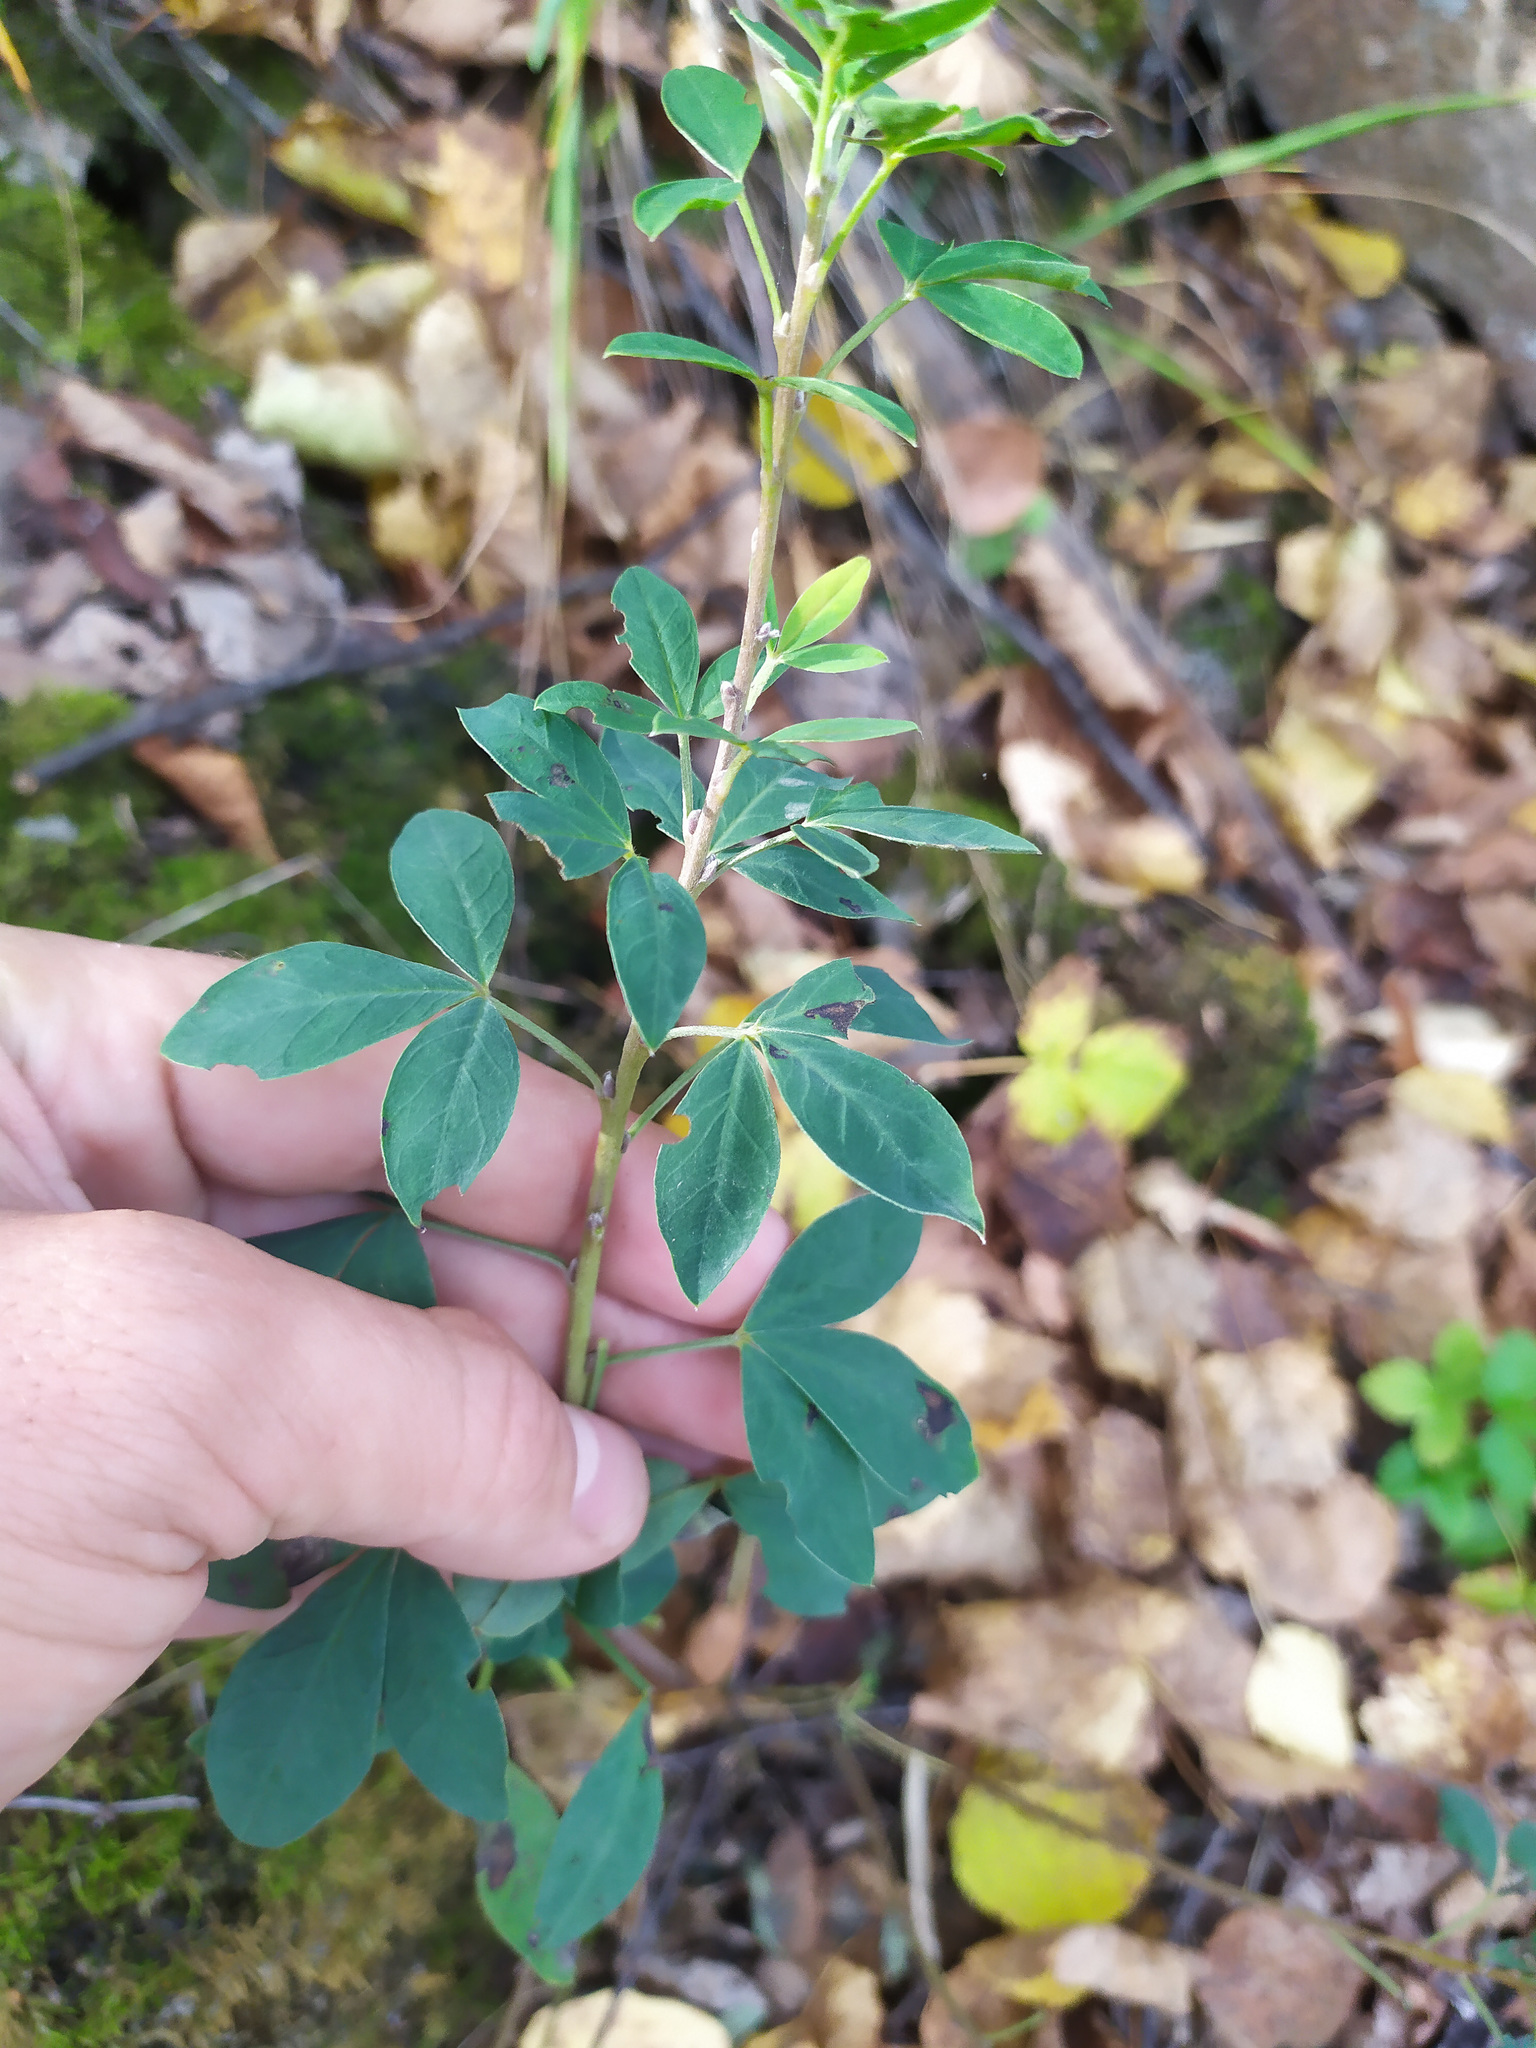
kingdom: Plantae
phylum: Tracheophyta
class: Magnoliopsida
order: Fabales
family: Fabaceae
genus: Chamaecytisus
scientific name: Chamaecytisus ruthenicus
